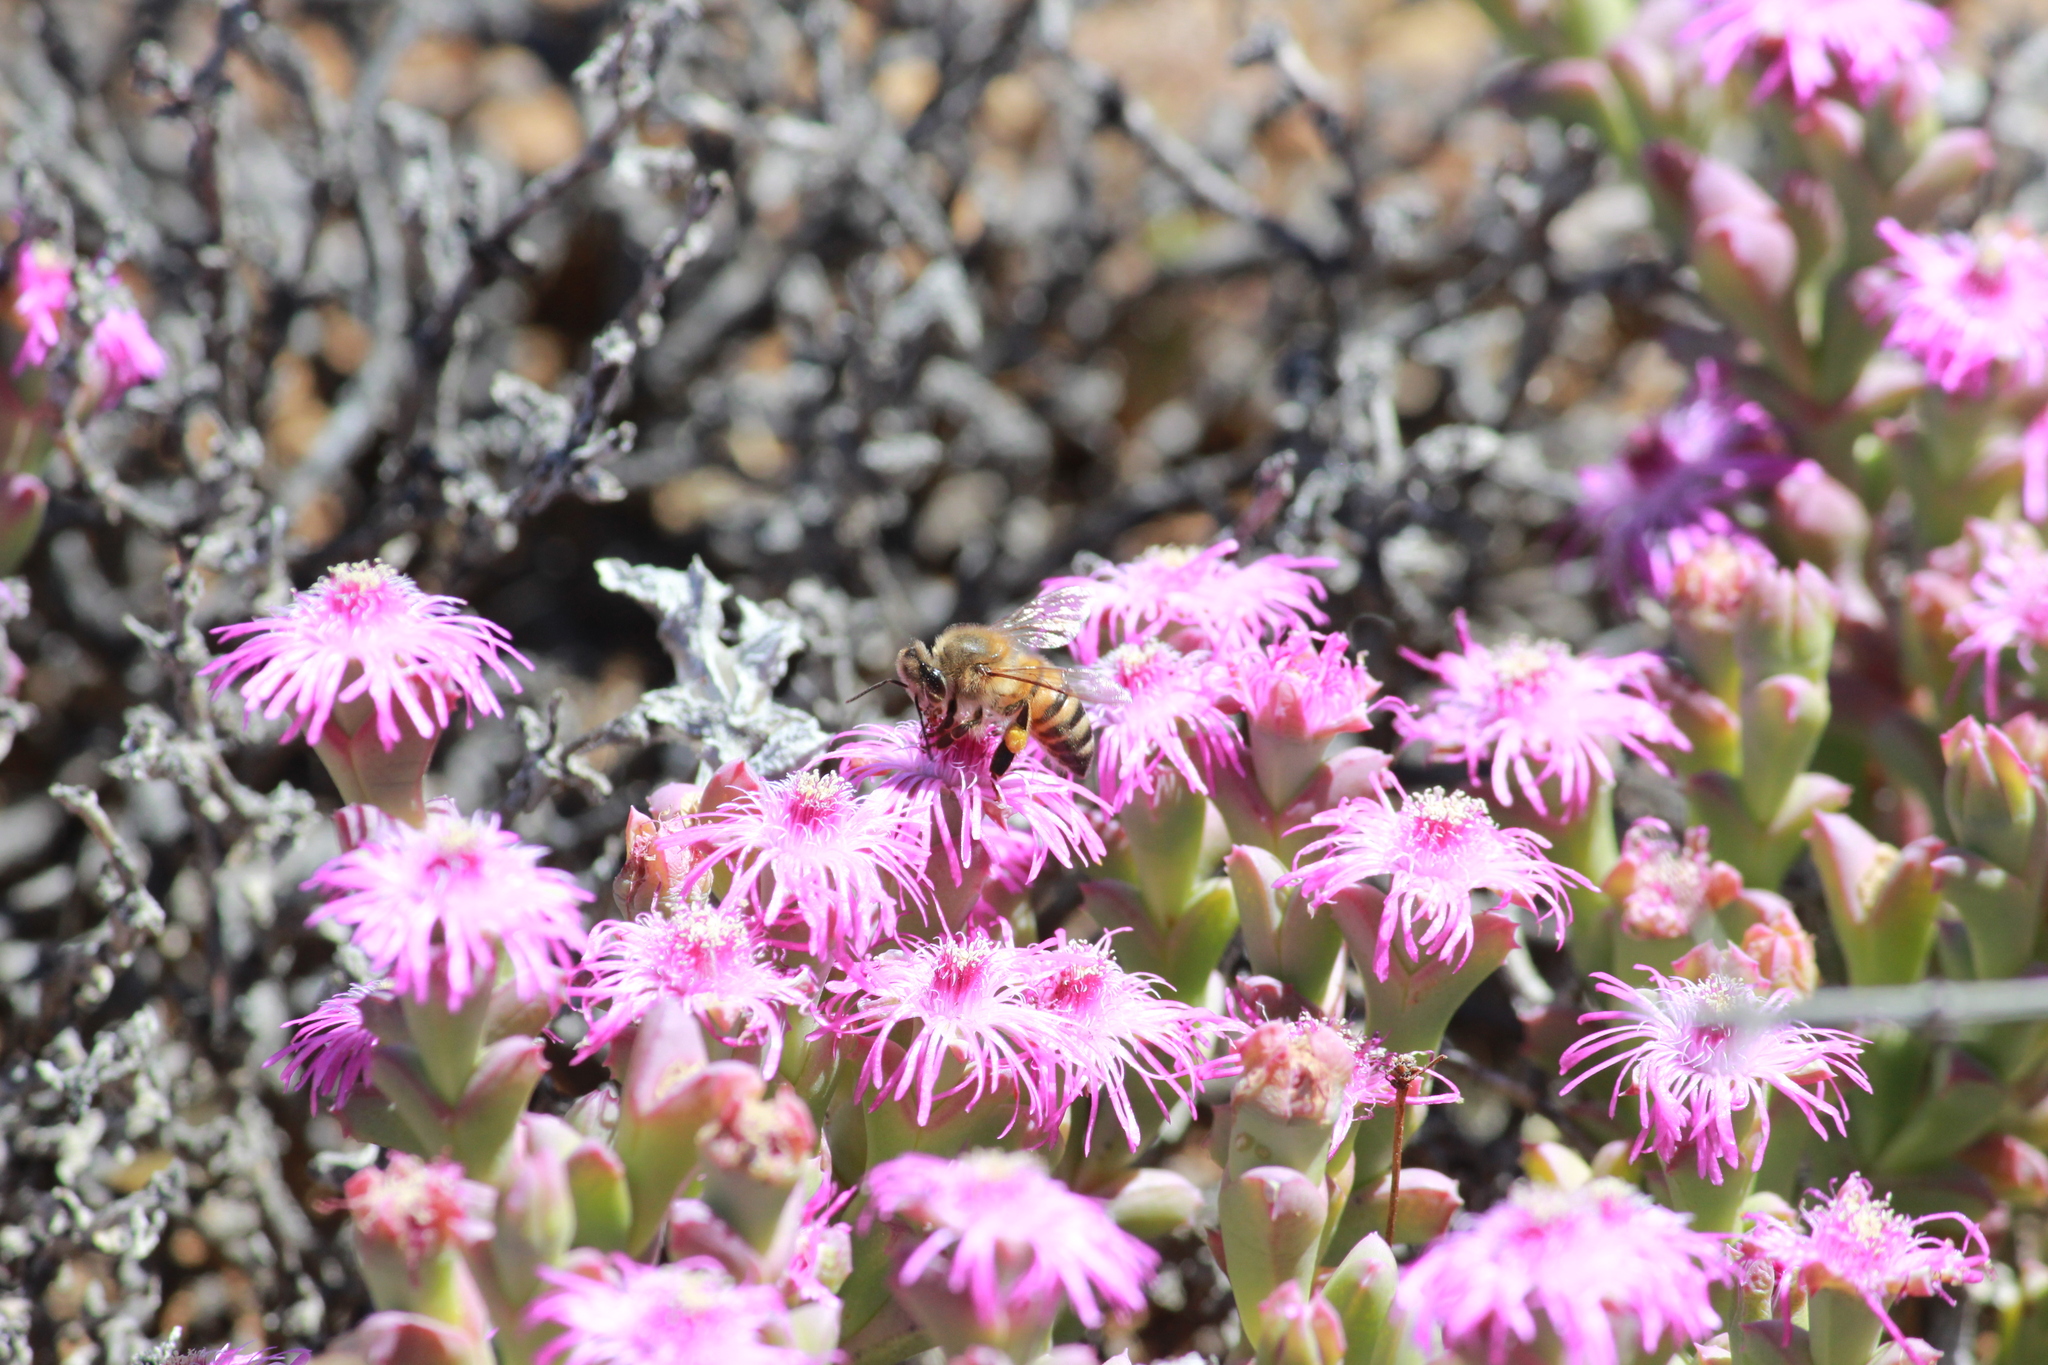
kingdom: Animalia
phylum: Arthropoda
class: Insecta
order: Hymenoptera
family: Apidae
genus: Apis
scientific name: Apis mellifera
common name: Honey bee
